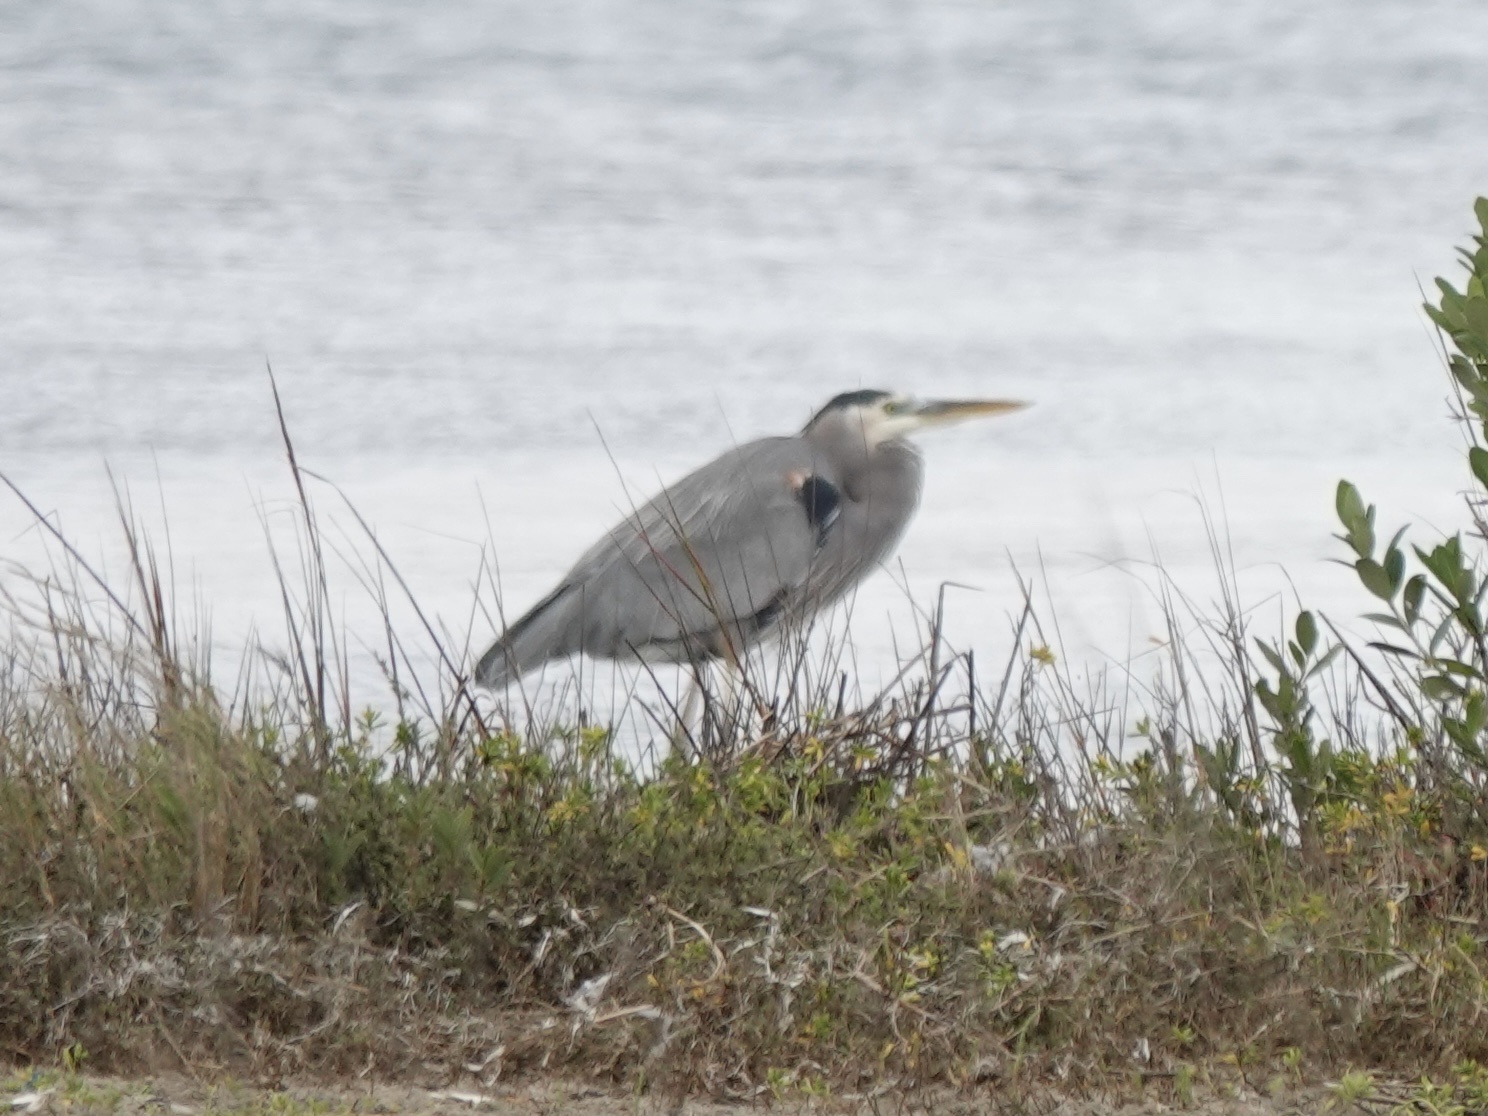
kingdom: Animalia
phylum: Chordata
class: Aves
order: Pelecaniformes
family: Ardeidae
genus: Ardea
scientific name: Ardea herodias
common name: Great blue heron
